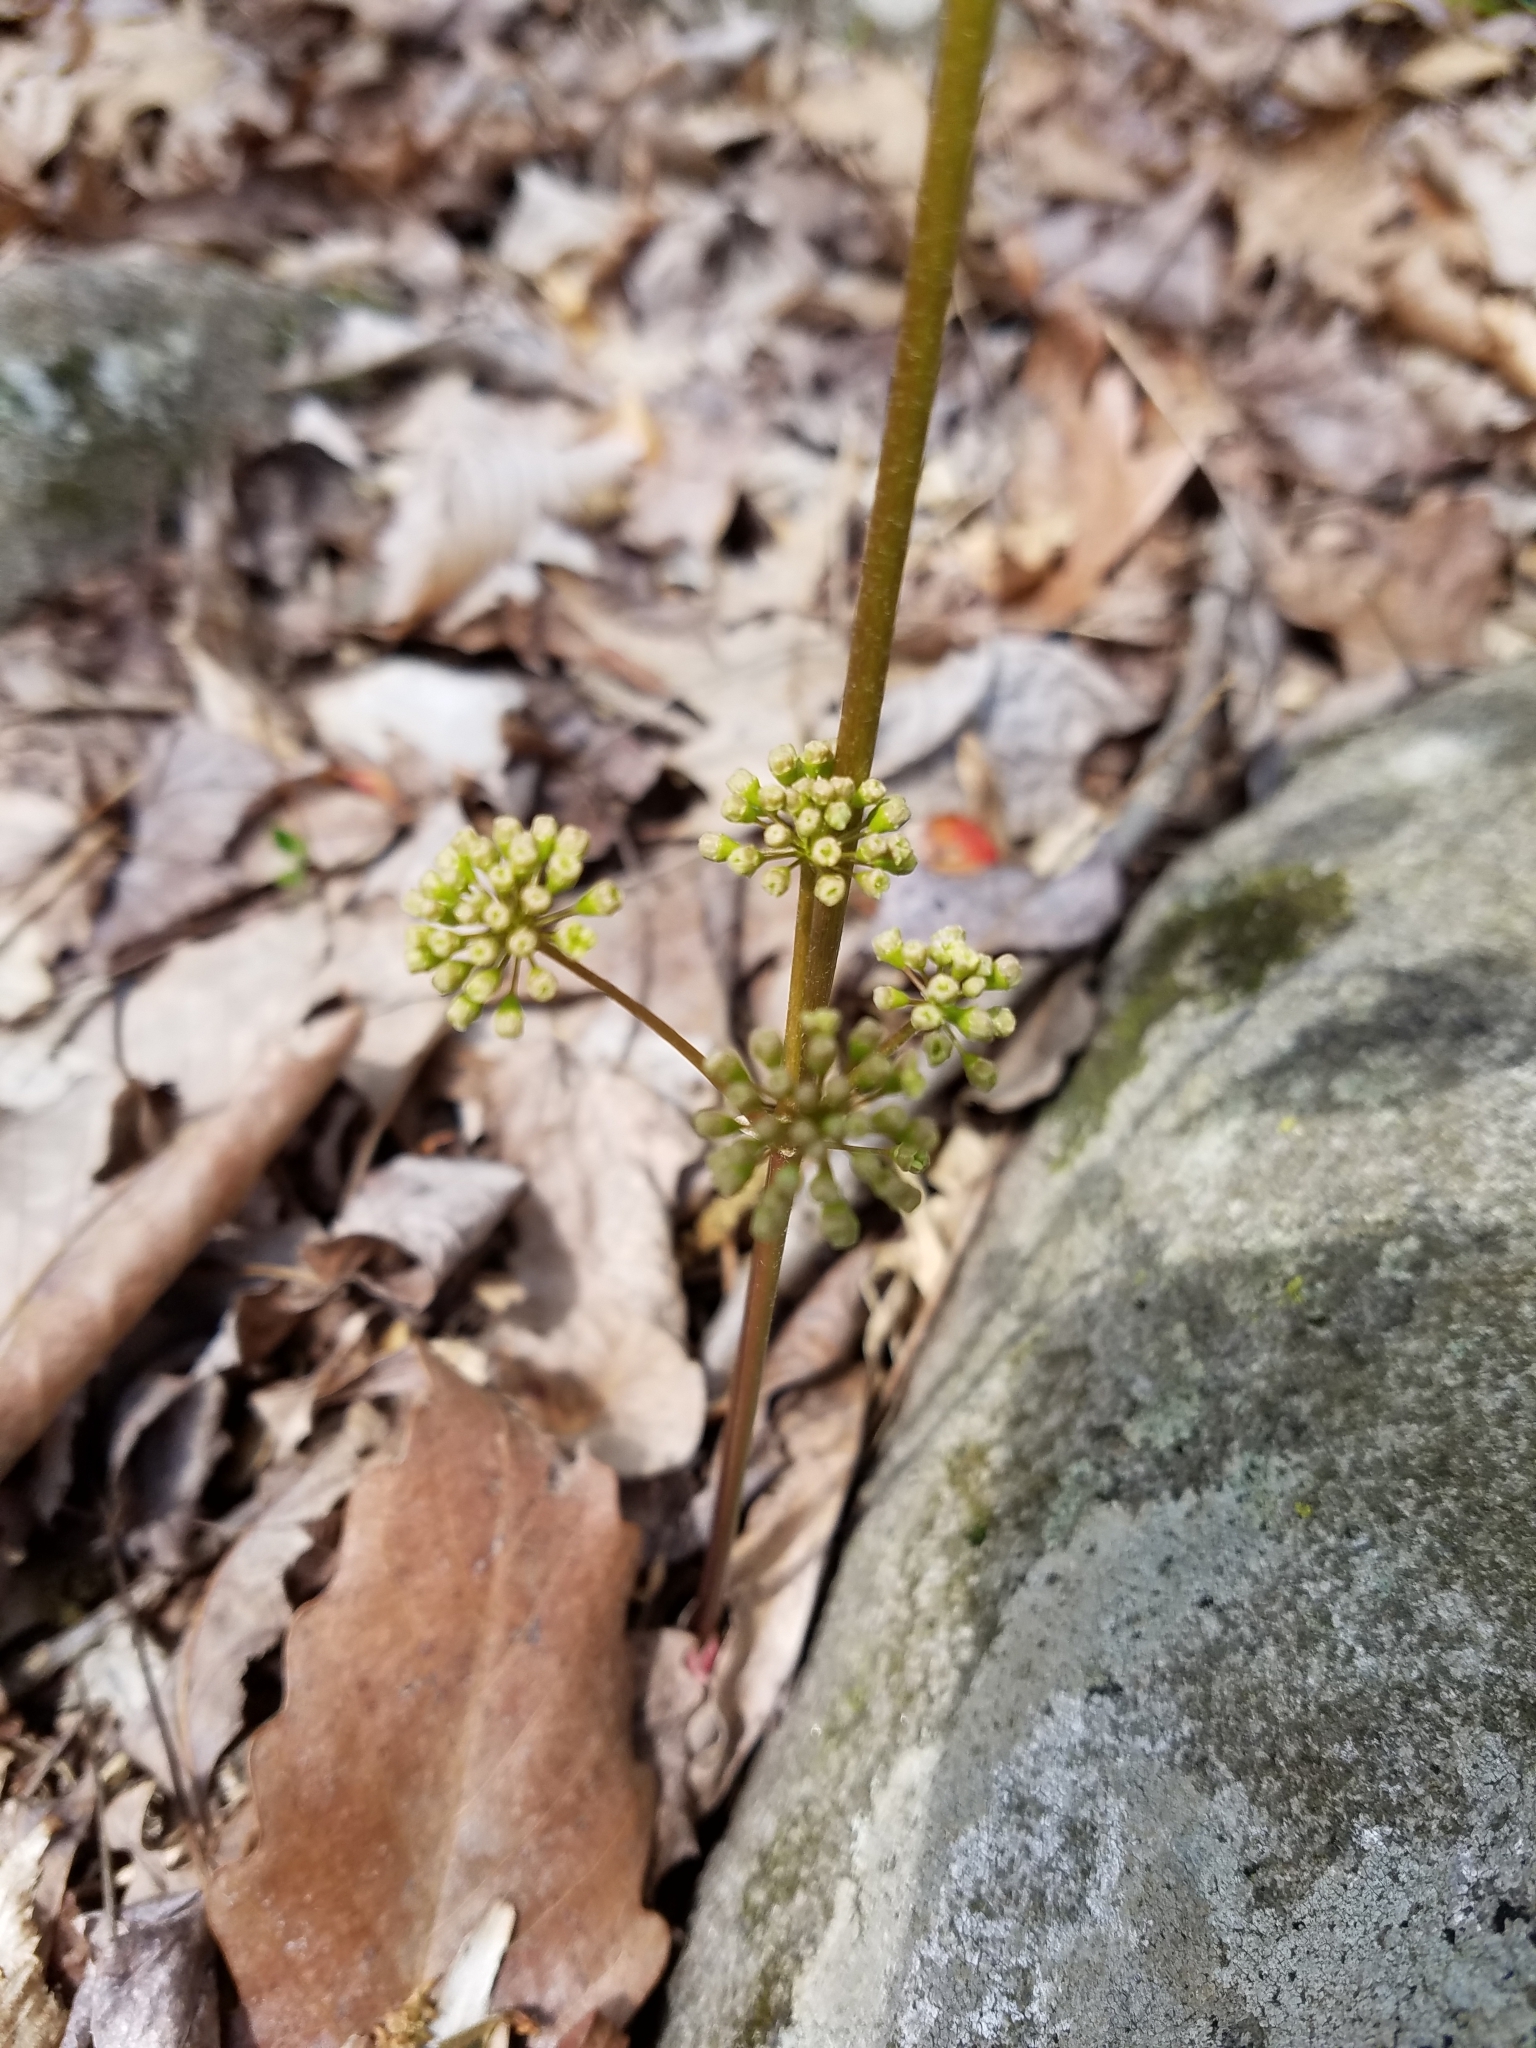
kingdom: Plantae
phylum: Tracheophyta
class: Magnoliopsida
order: Apiales
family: Araliaceae
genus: Aralia
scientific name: Aralia nudicaulis
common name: Wild sarsaparilla
